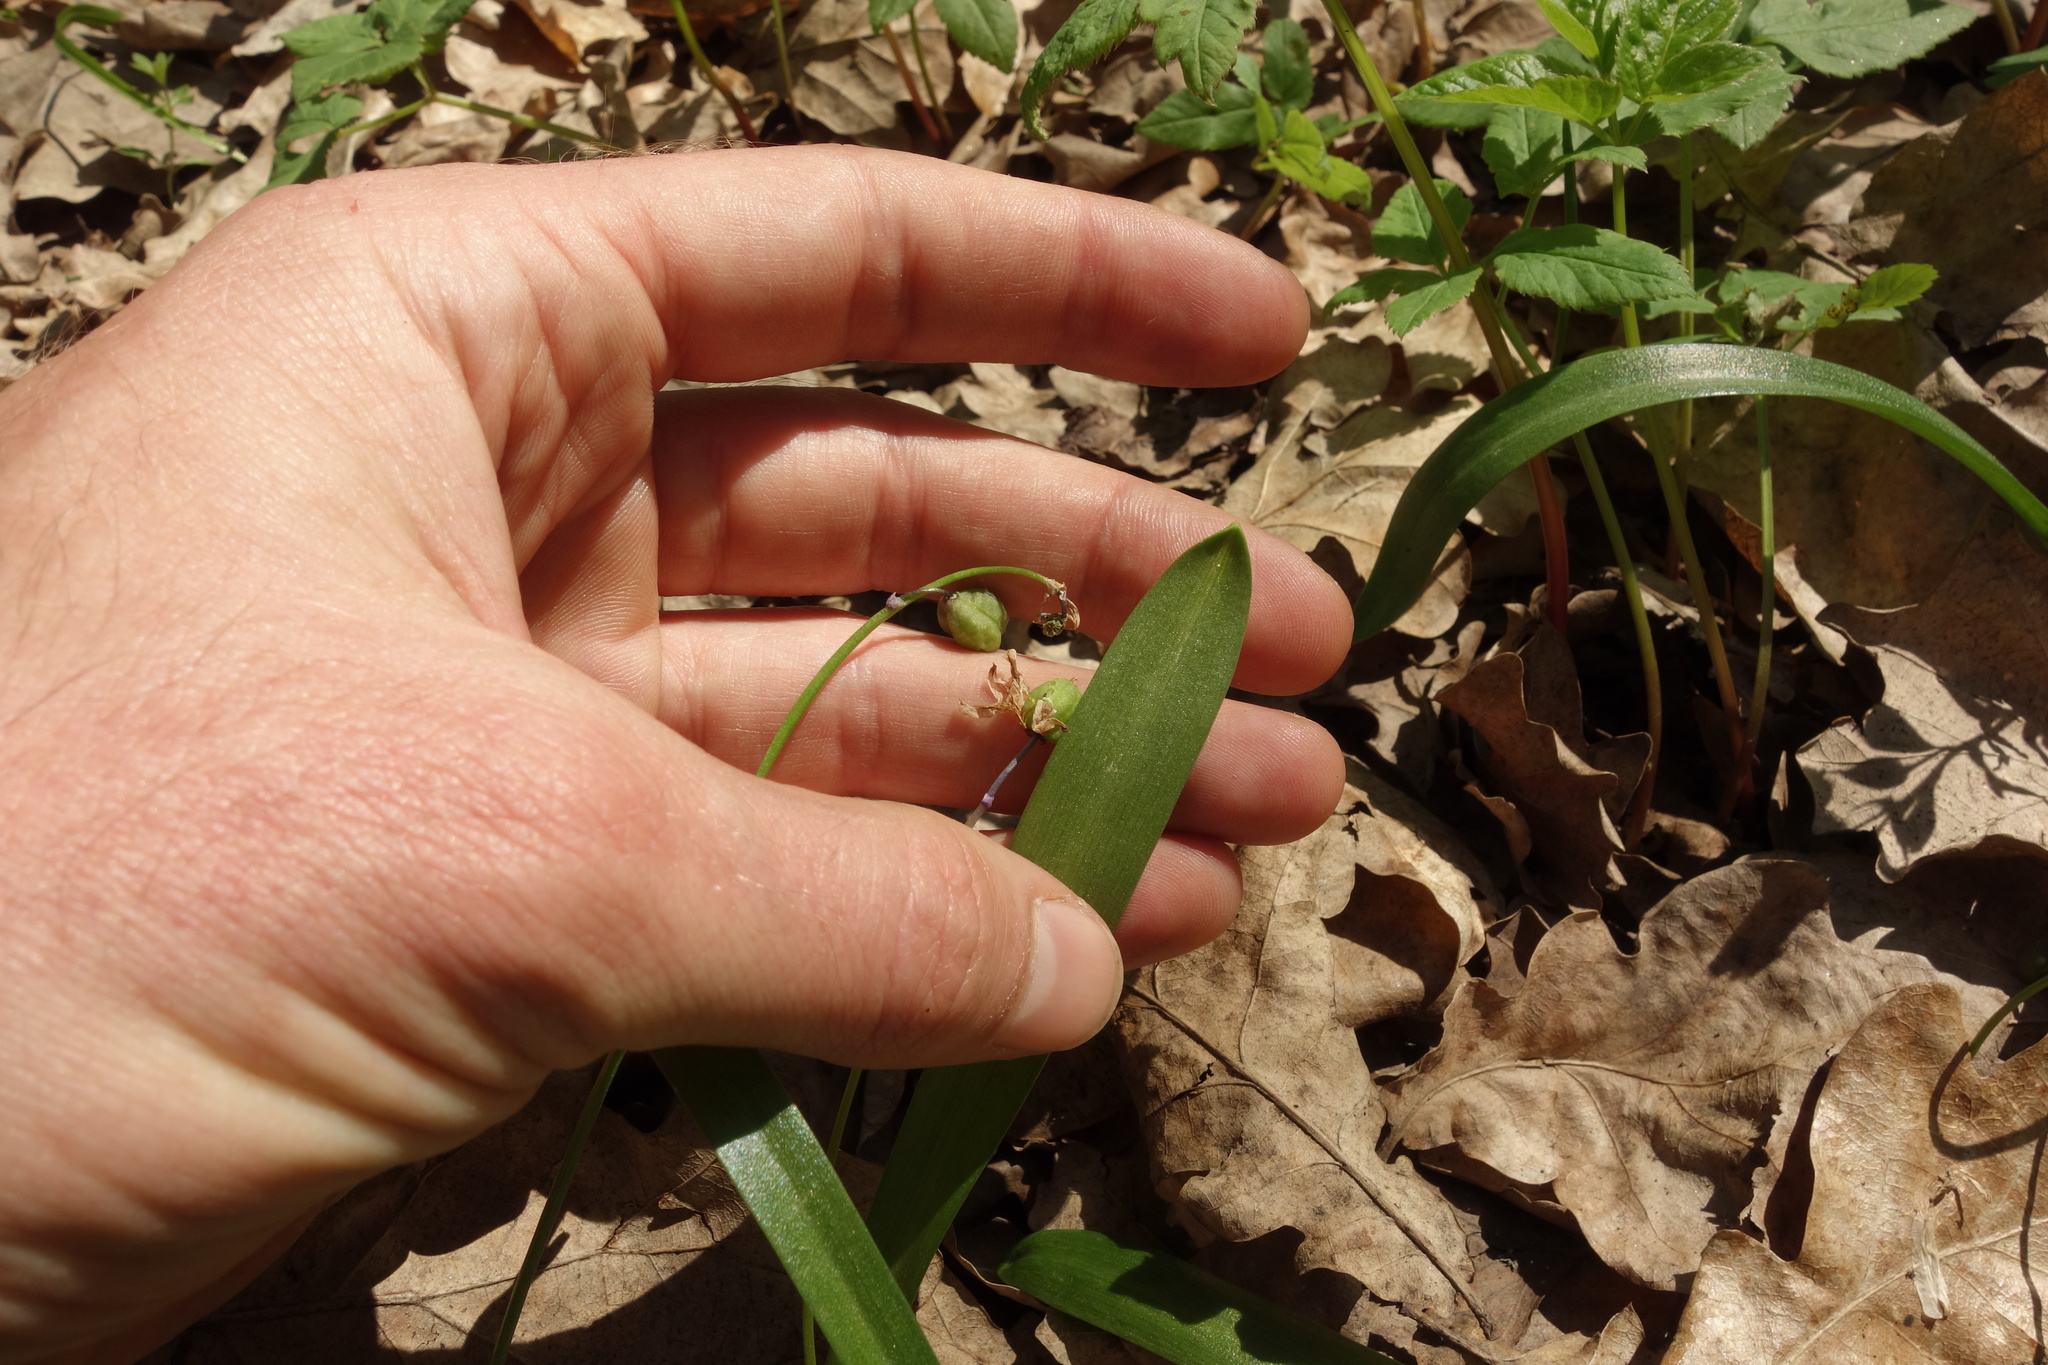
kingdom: Plantae
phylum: Tracheophyta
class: Liliopsida
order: Asparagales
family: Asparagaceae
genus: Scilla
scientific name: Scilla siberica
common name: Siberian squill
